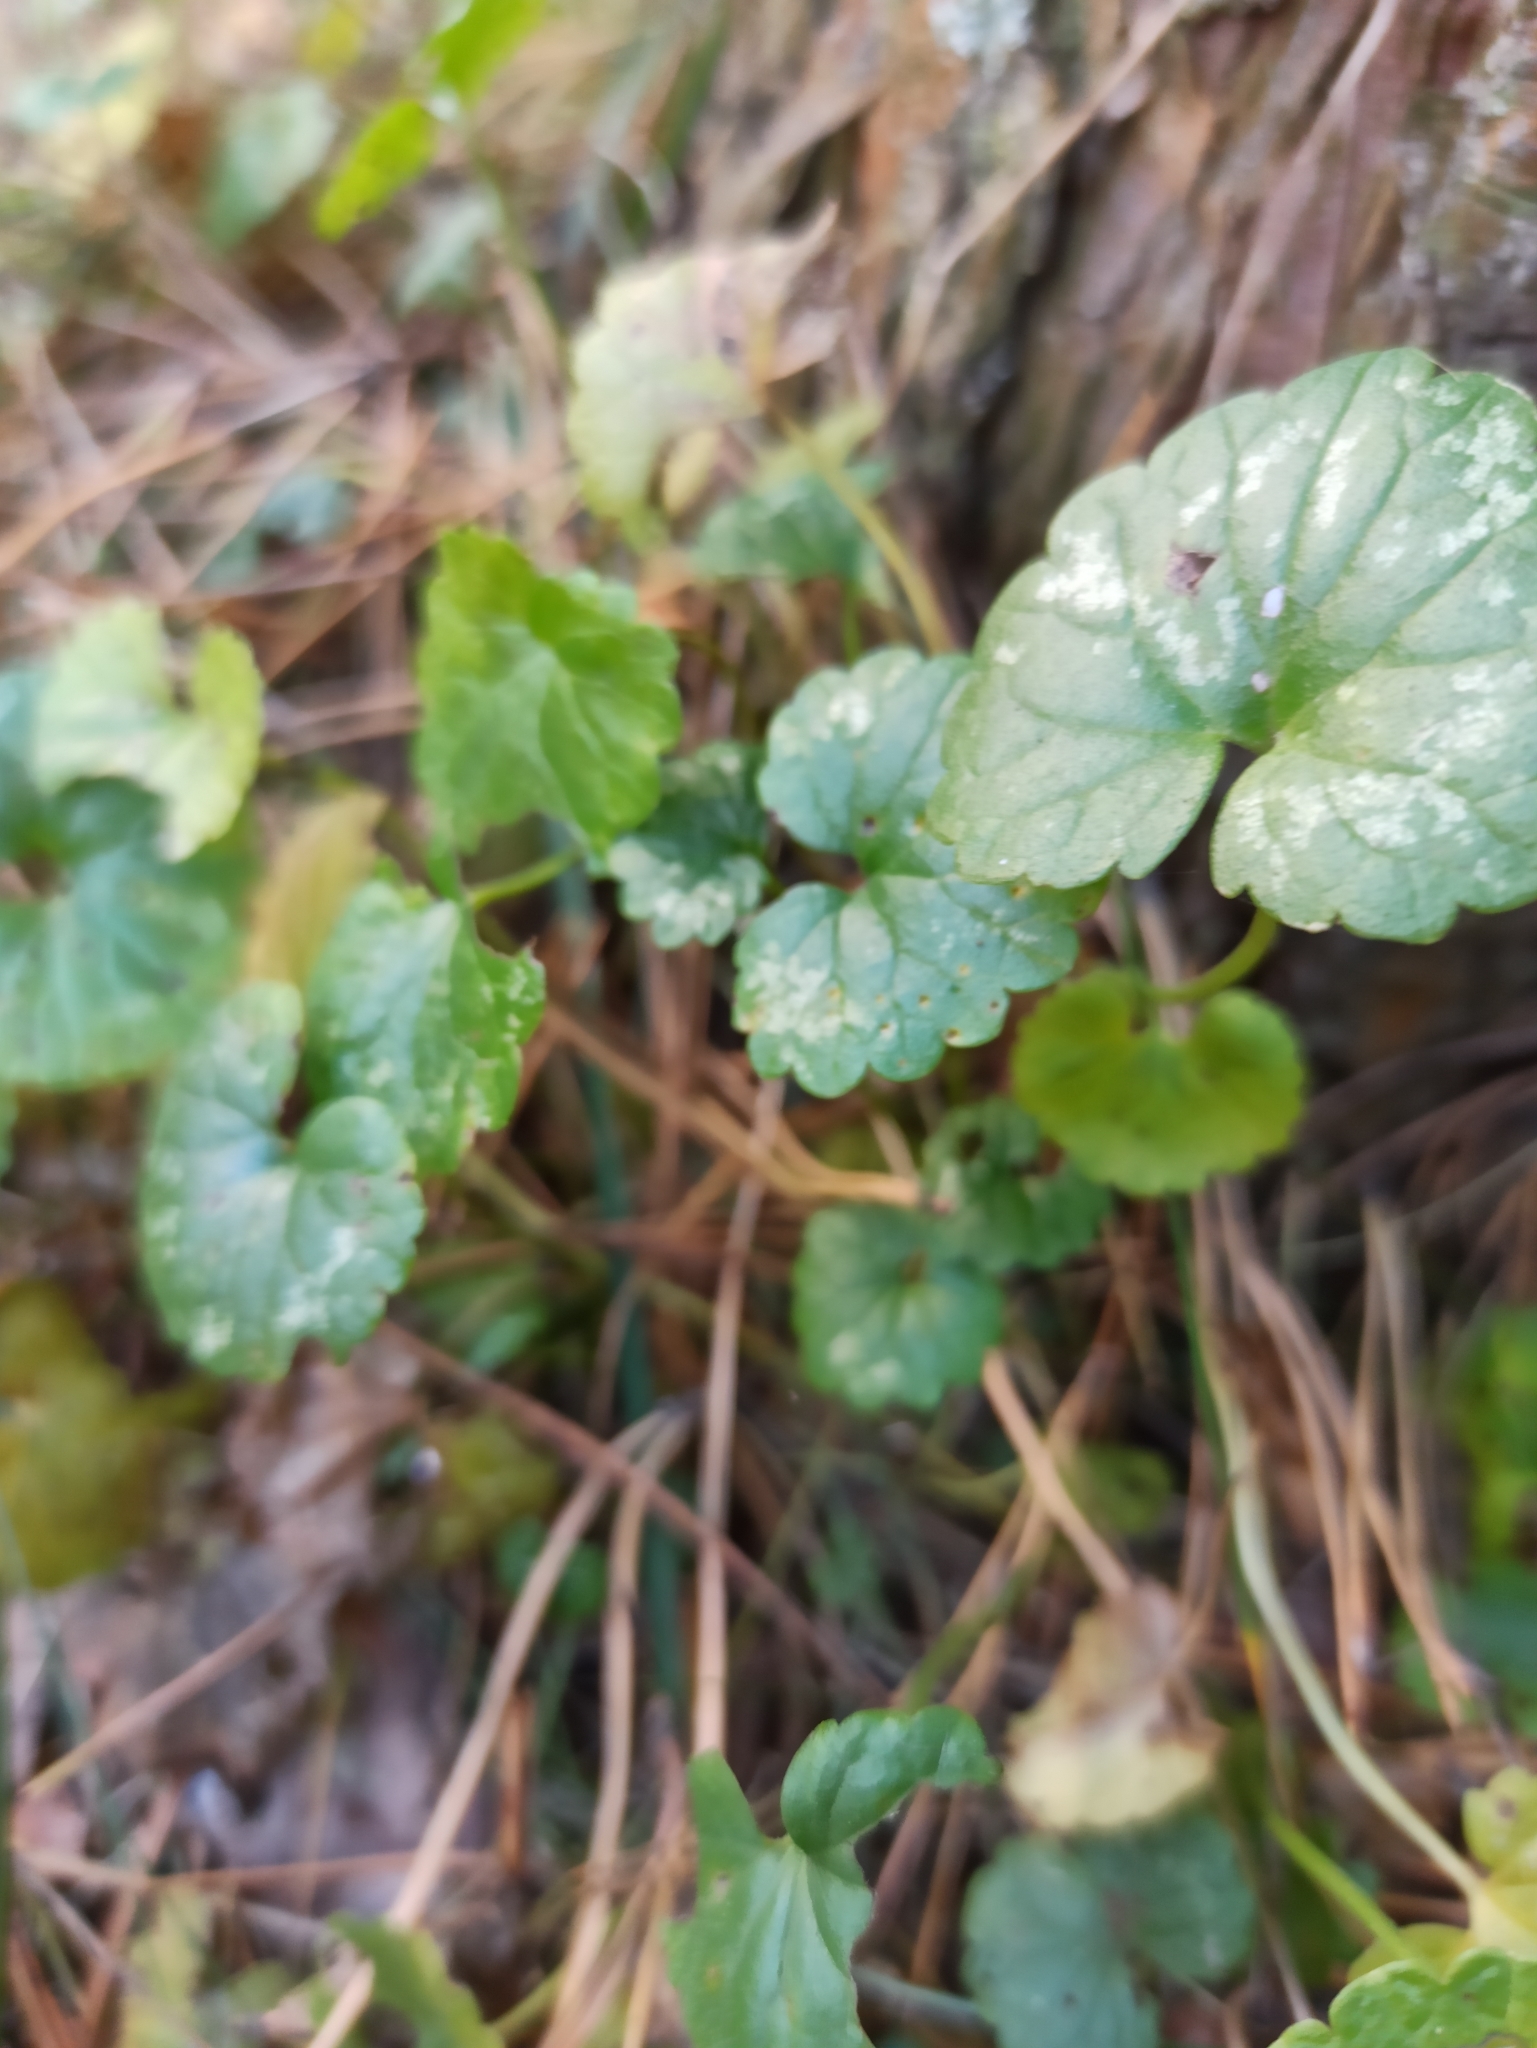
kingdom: Plantae
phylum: Tracheophyta
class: Magnoliopsida
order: Lamiales
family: Lamiaceae
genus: Glechoma
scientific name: Glechoma hederacea
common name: Ground ivy
